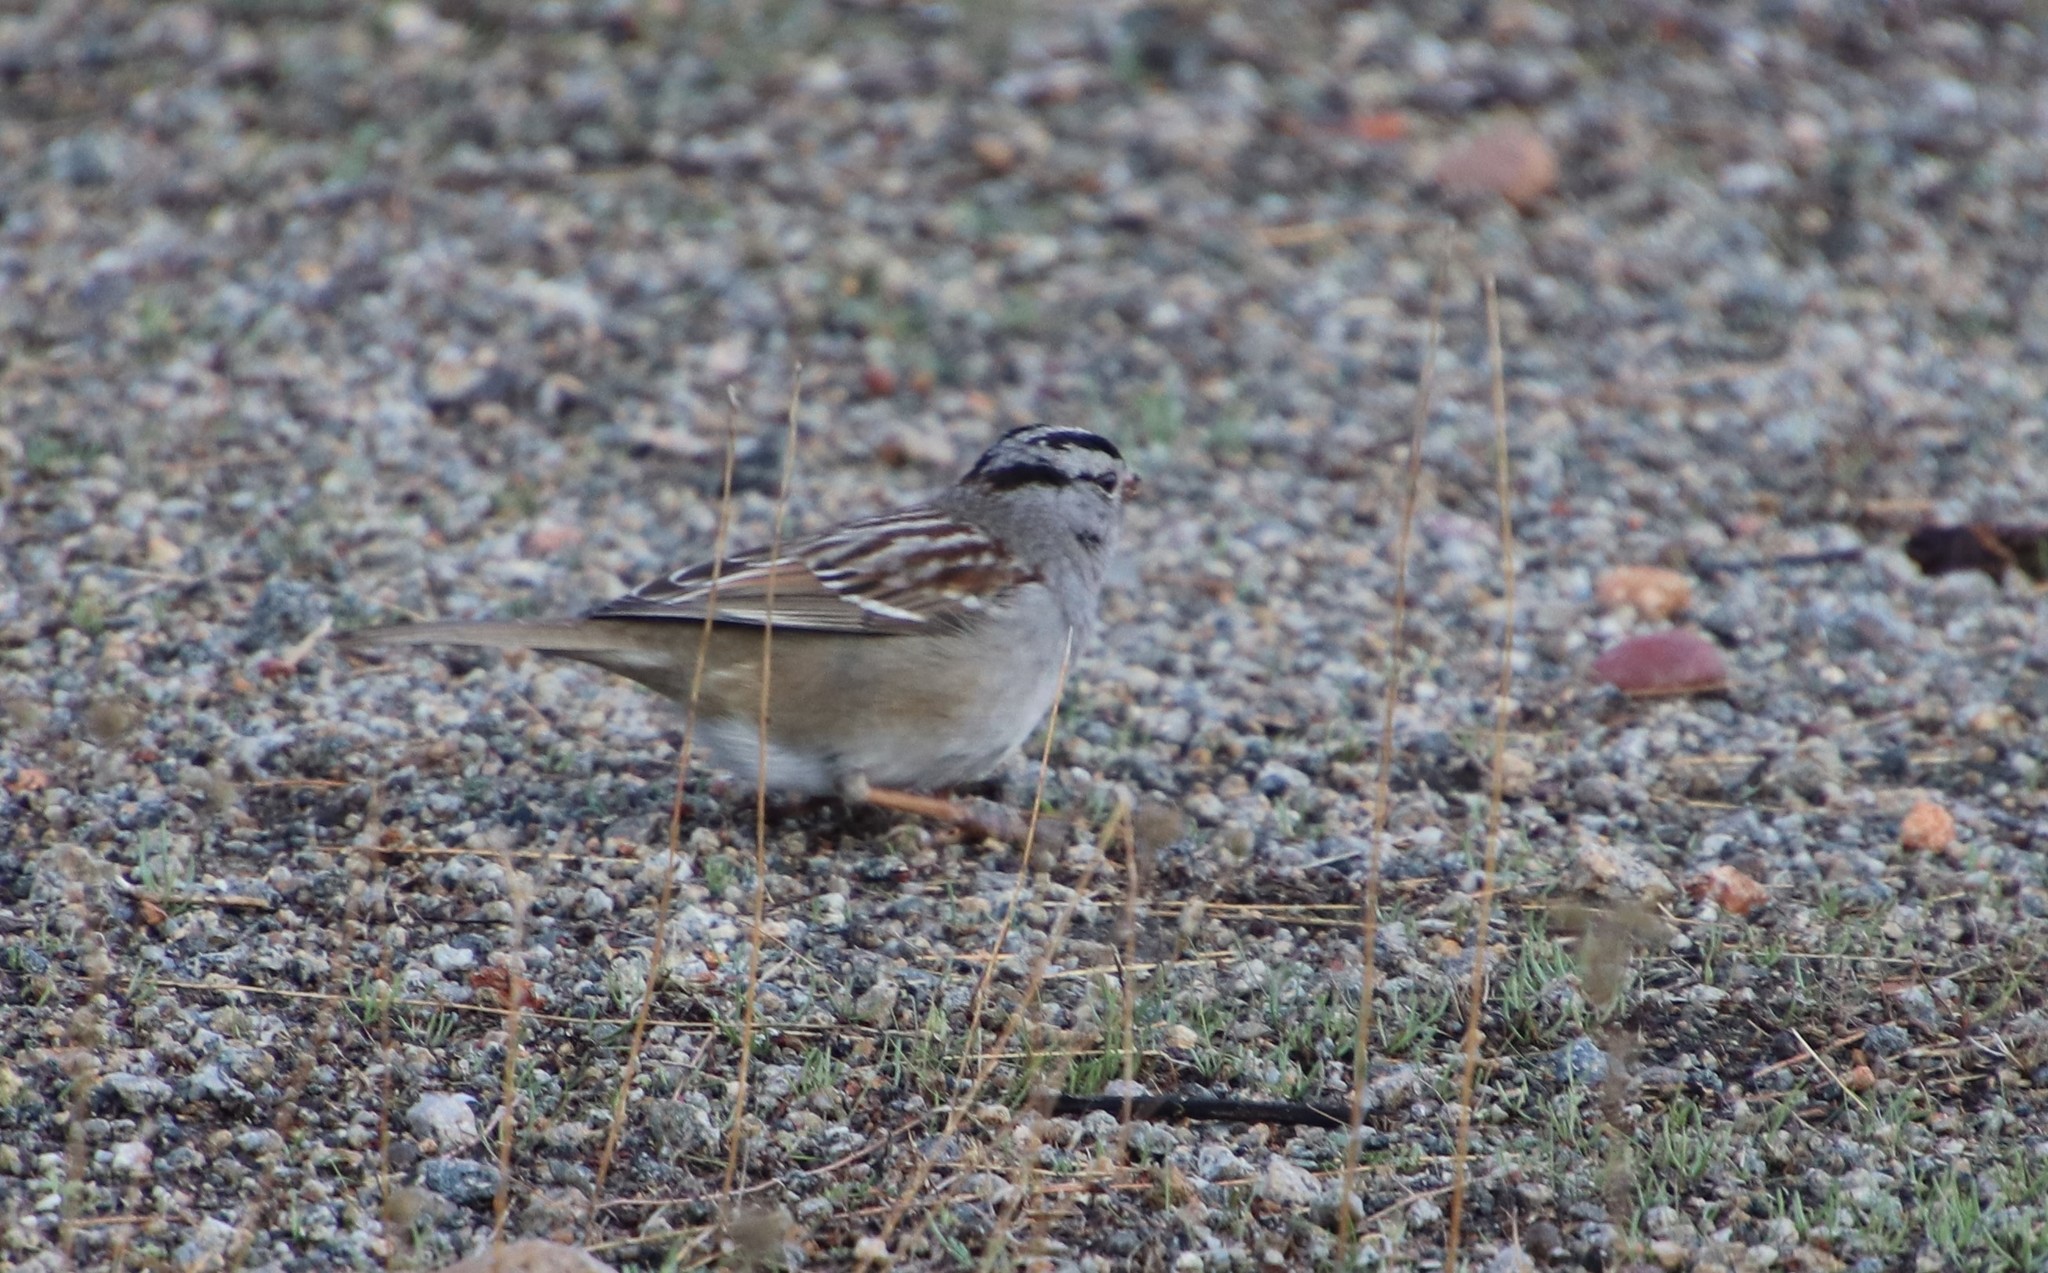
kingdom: Animalia
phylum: Chordata
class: Aves
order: Passeriformes
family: Passerellidae
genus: Zonotrichia
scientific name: Zonotrichia leucophrys
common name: White-crowned sparrow
